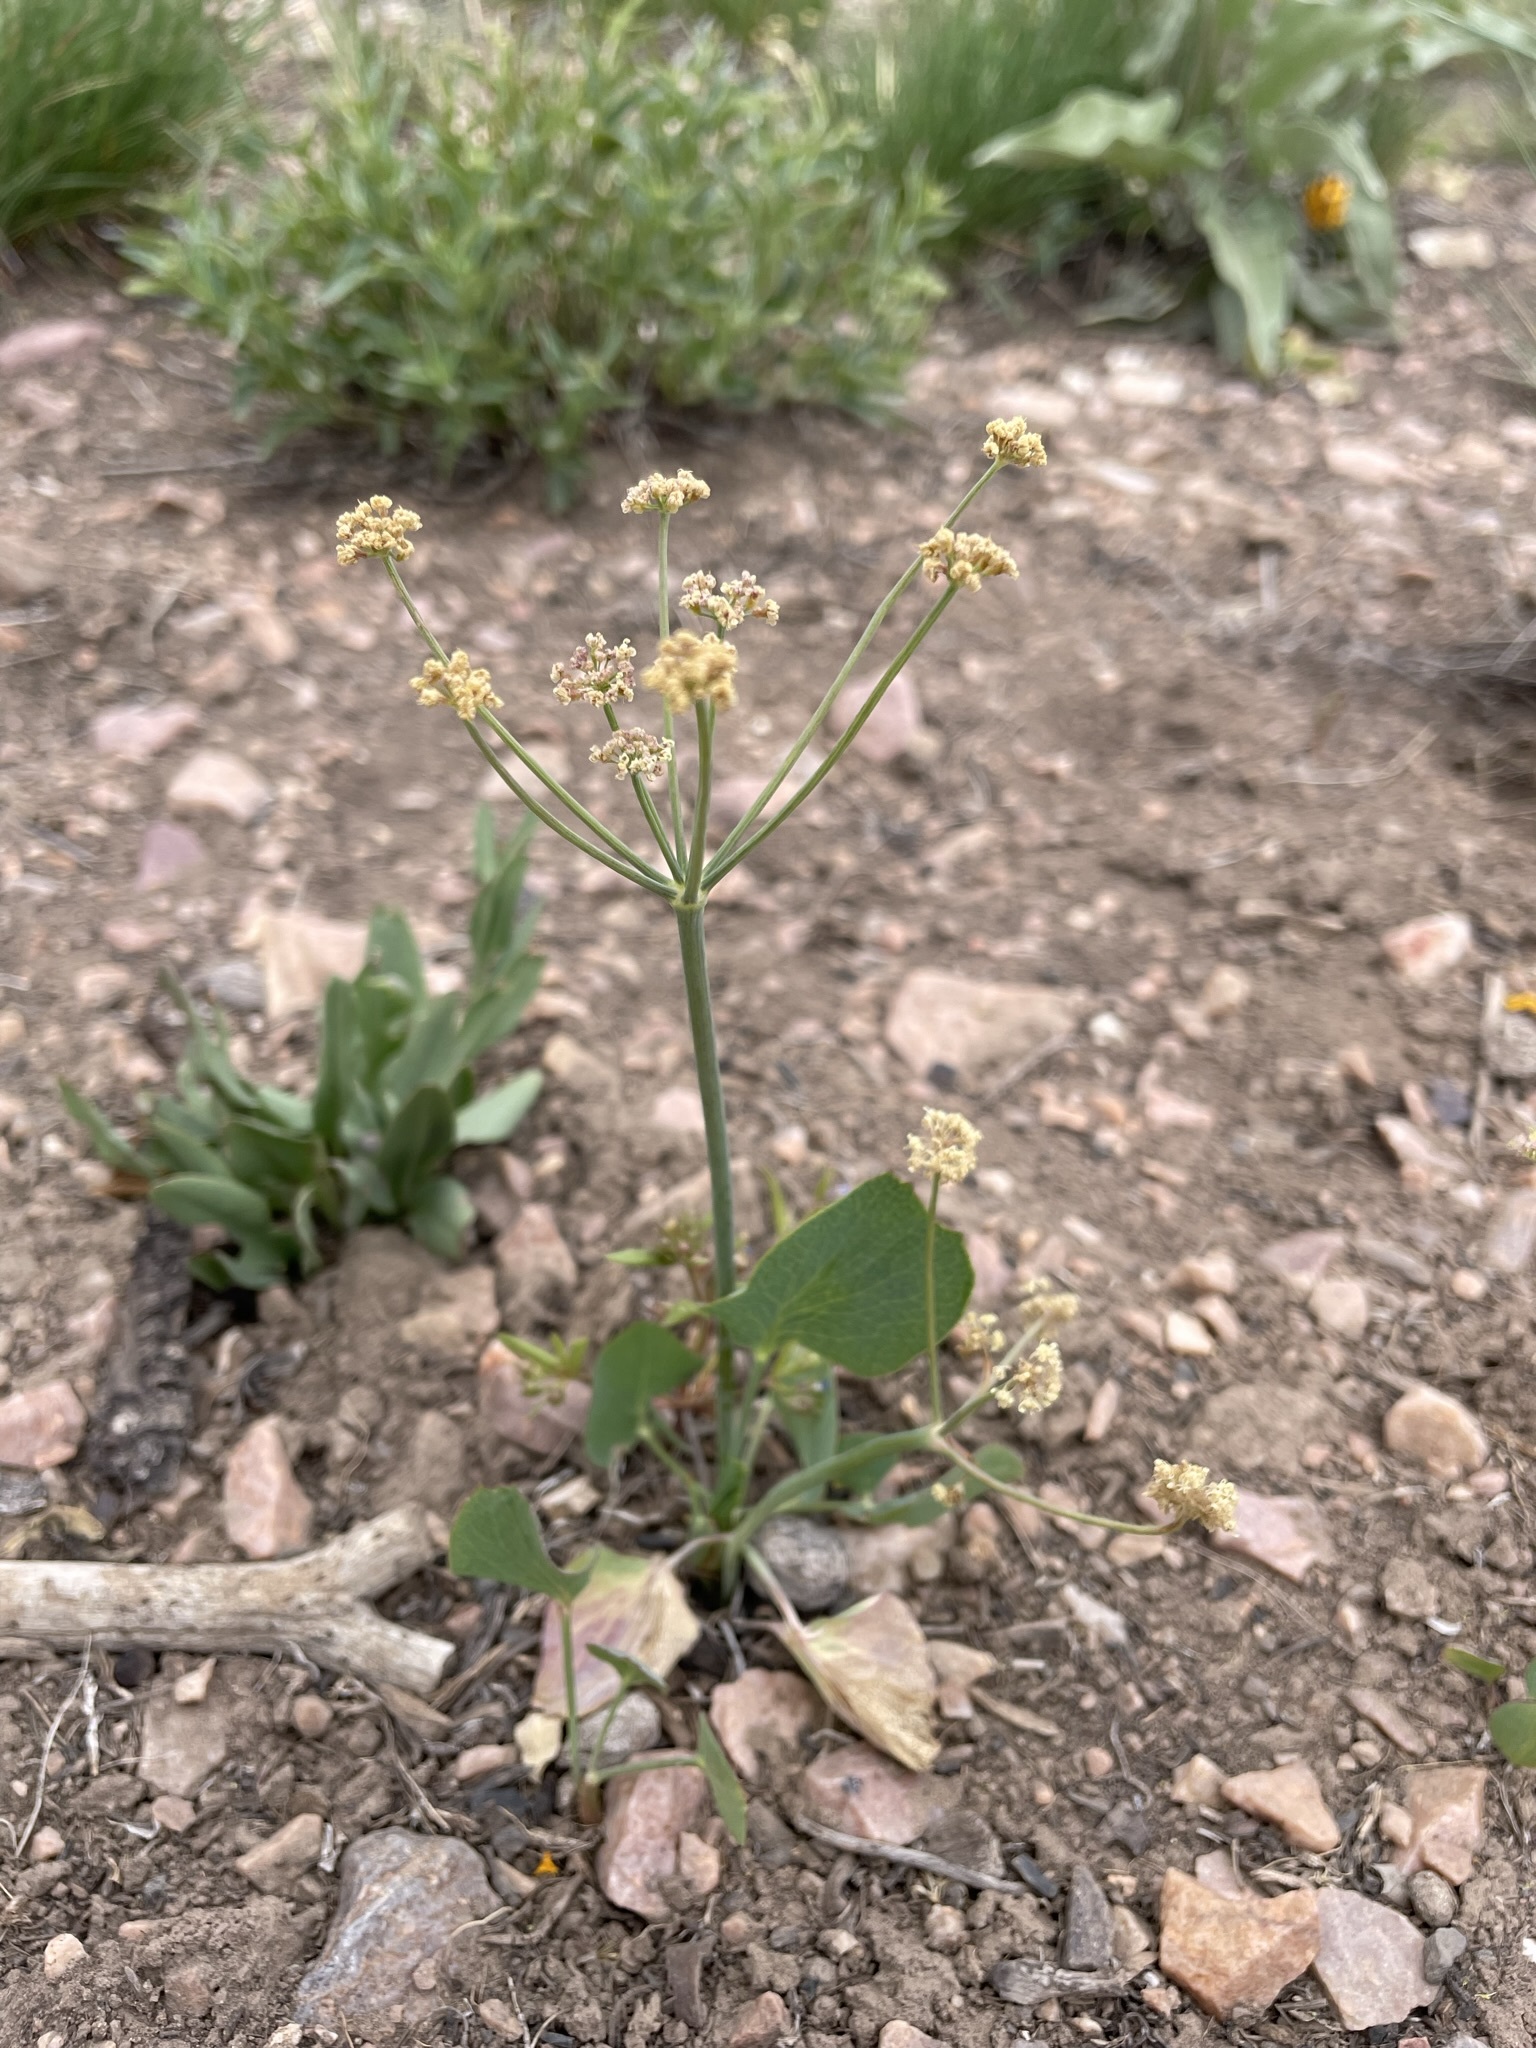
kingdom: Plantae
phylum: Tracheophyta
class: Magnoliopsida
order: Apiales
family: Apiaceae
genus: Lomatium
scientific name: Lomatium nudicaule
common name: Pestle lomatium
